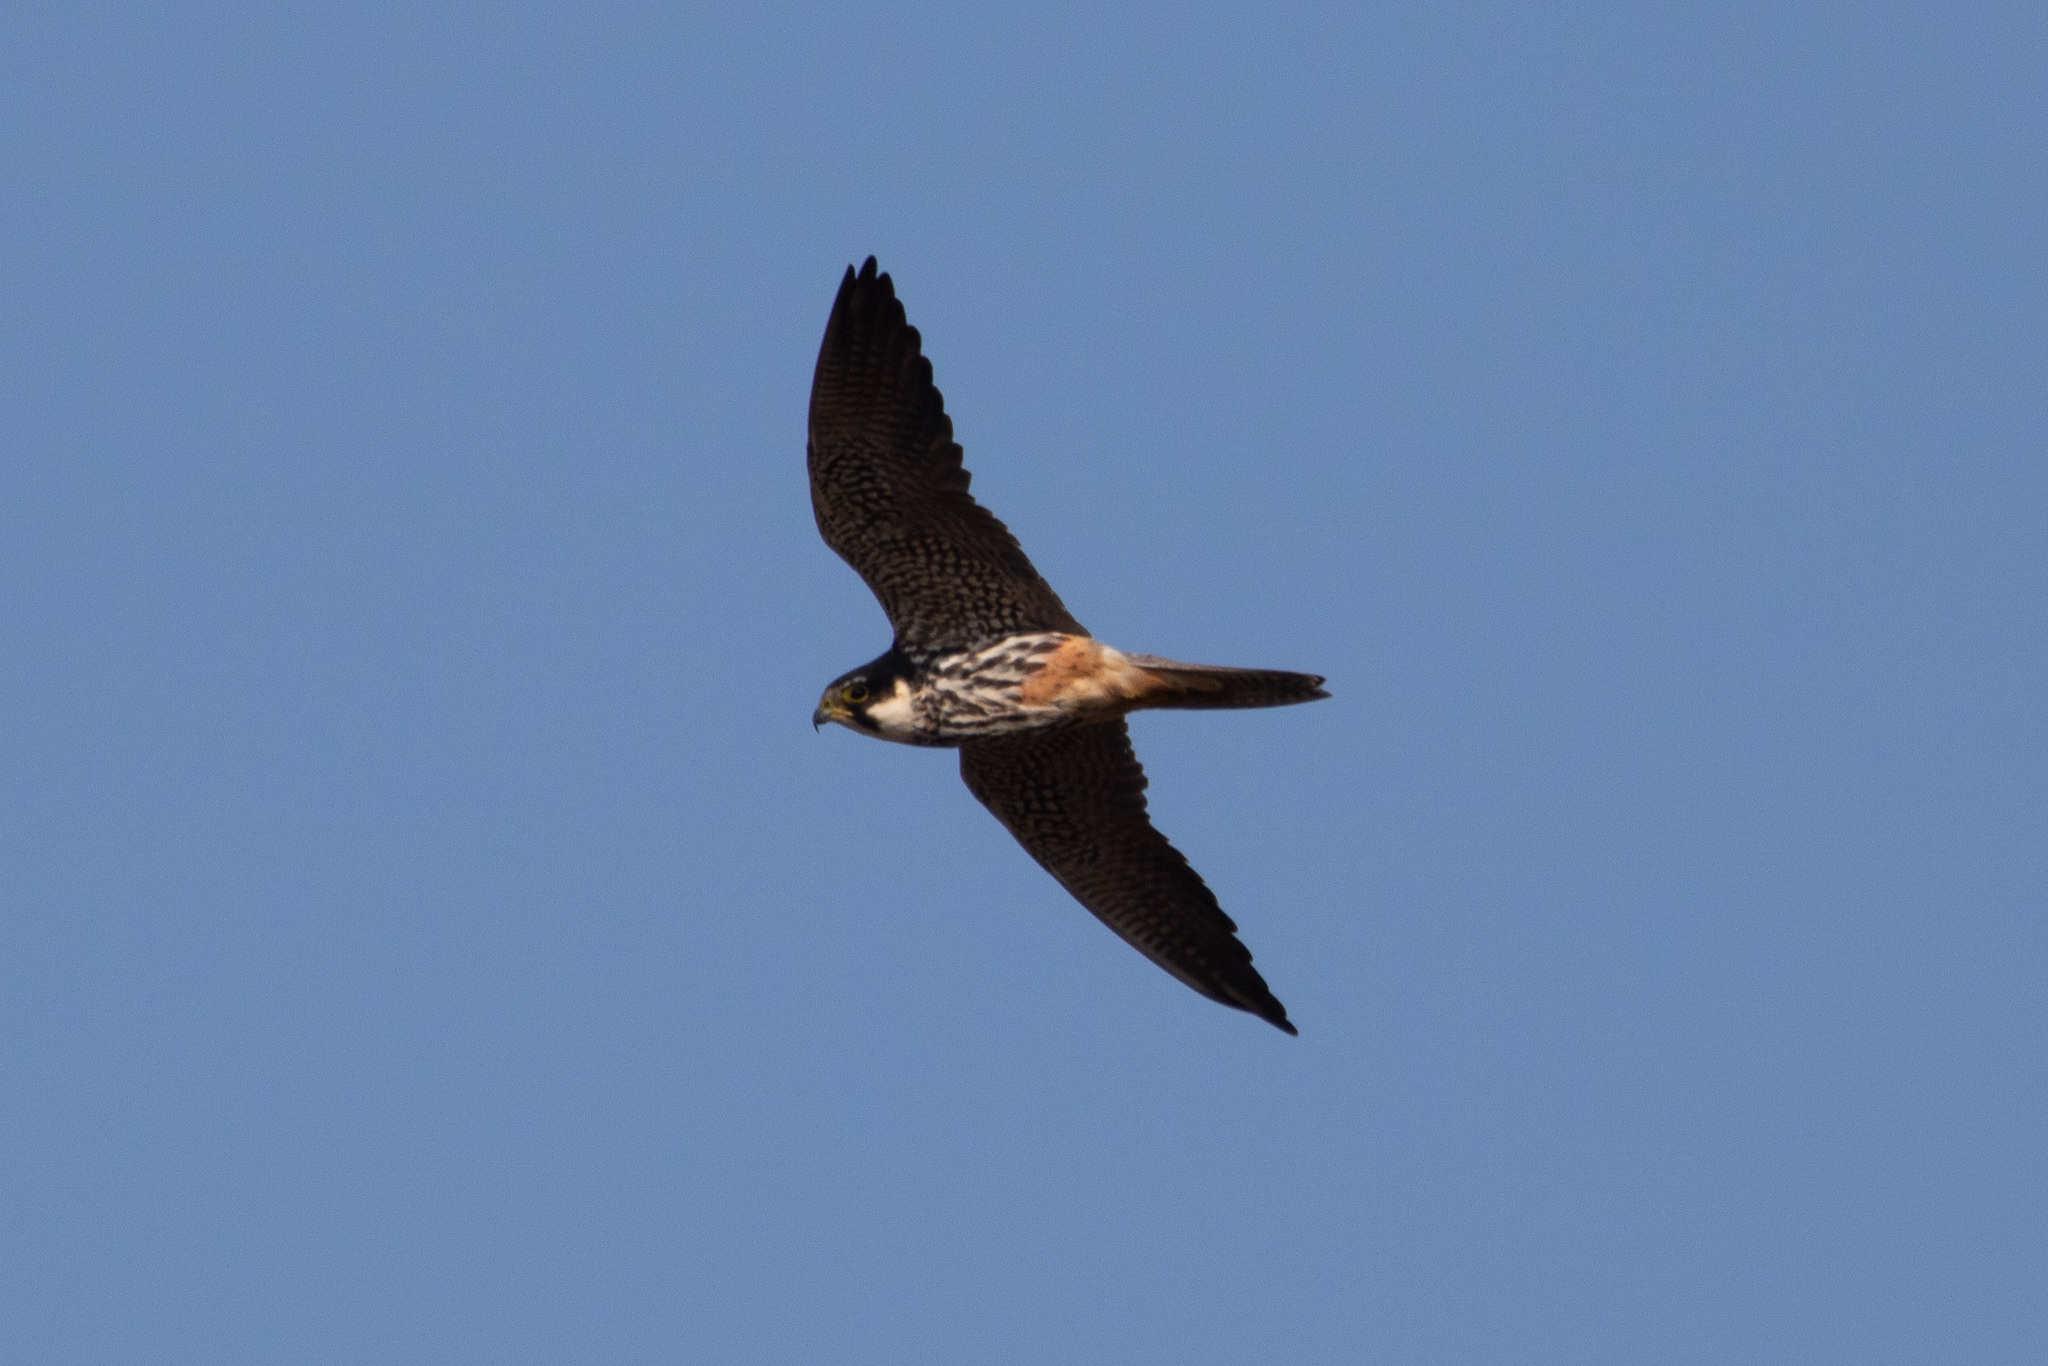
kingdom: Animalia
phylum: Chordata
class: Aves
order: Falconiformes
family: Falconidae
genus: Falco
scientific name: Falco subbuteo
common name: Eurasian hobby
